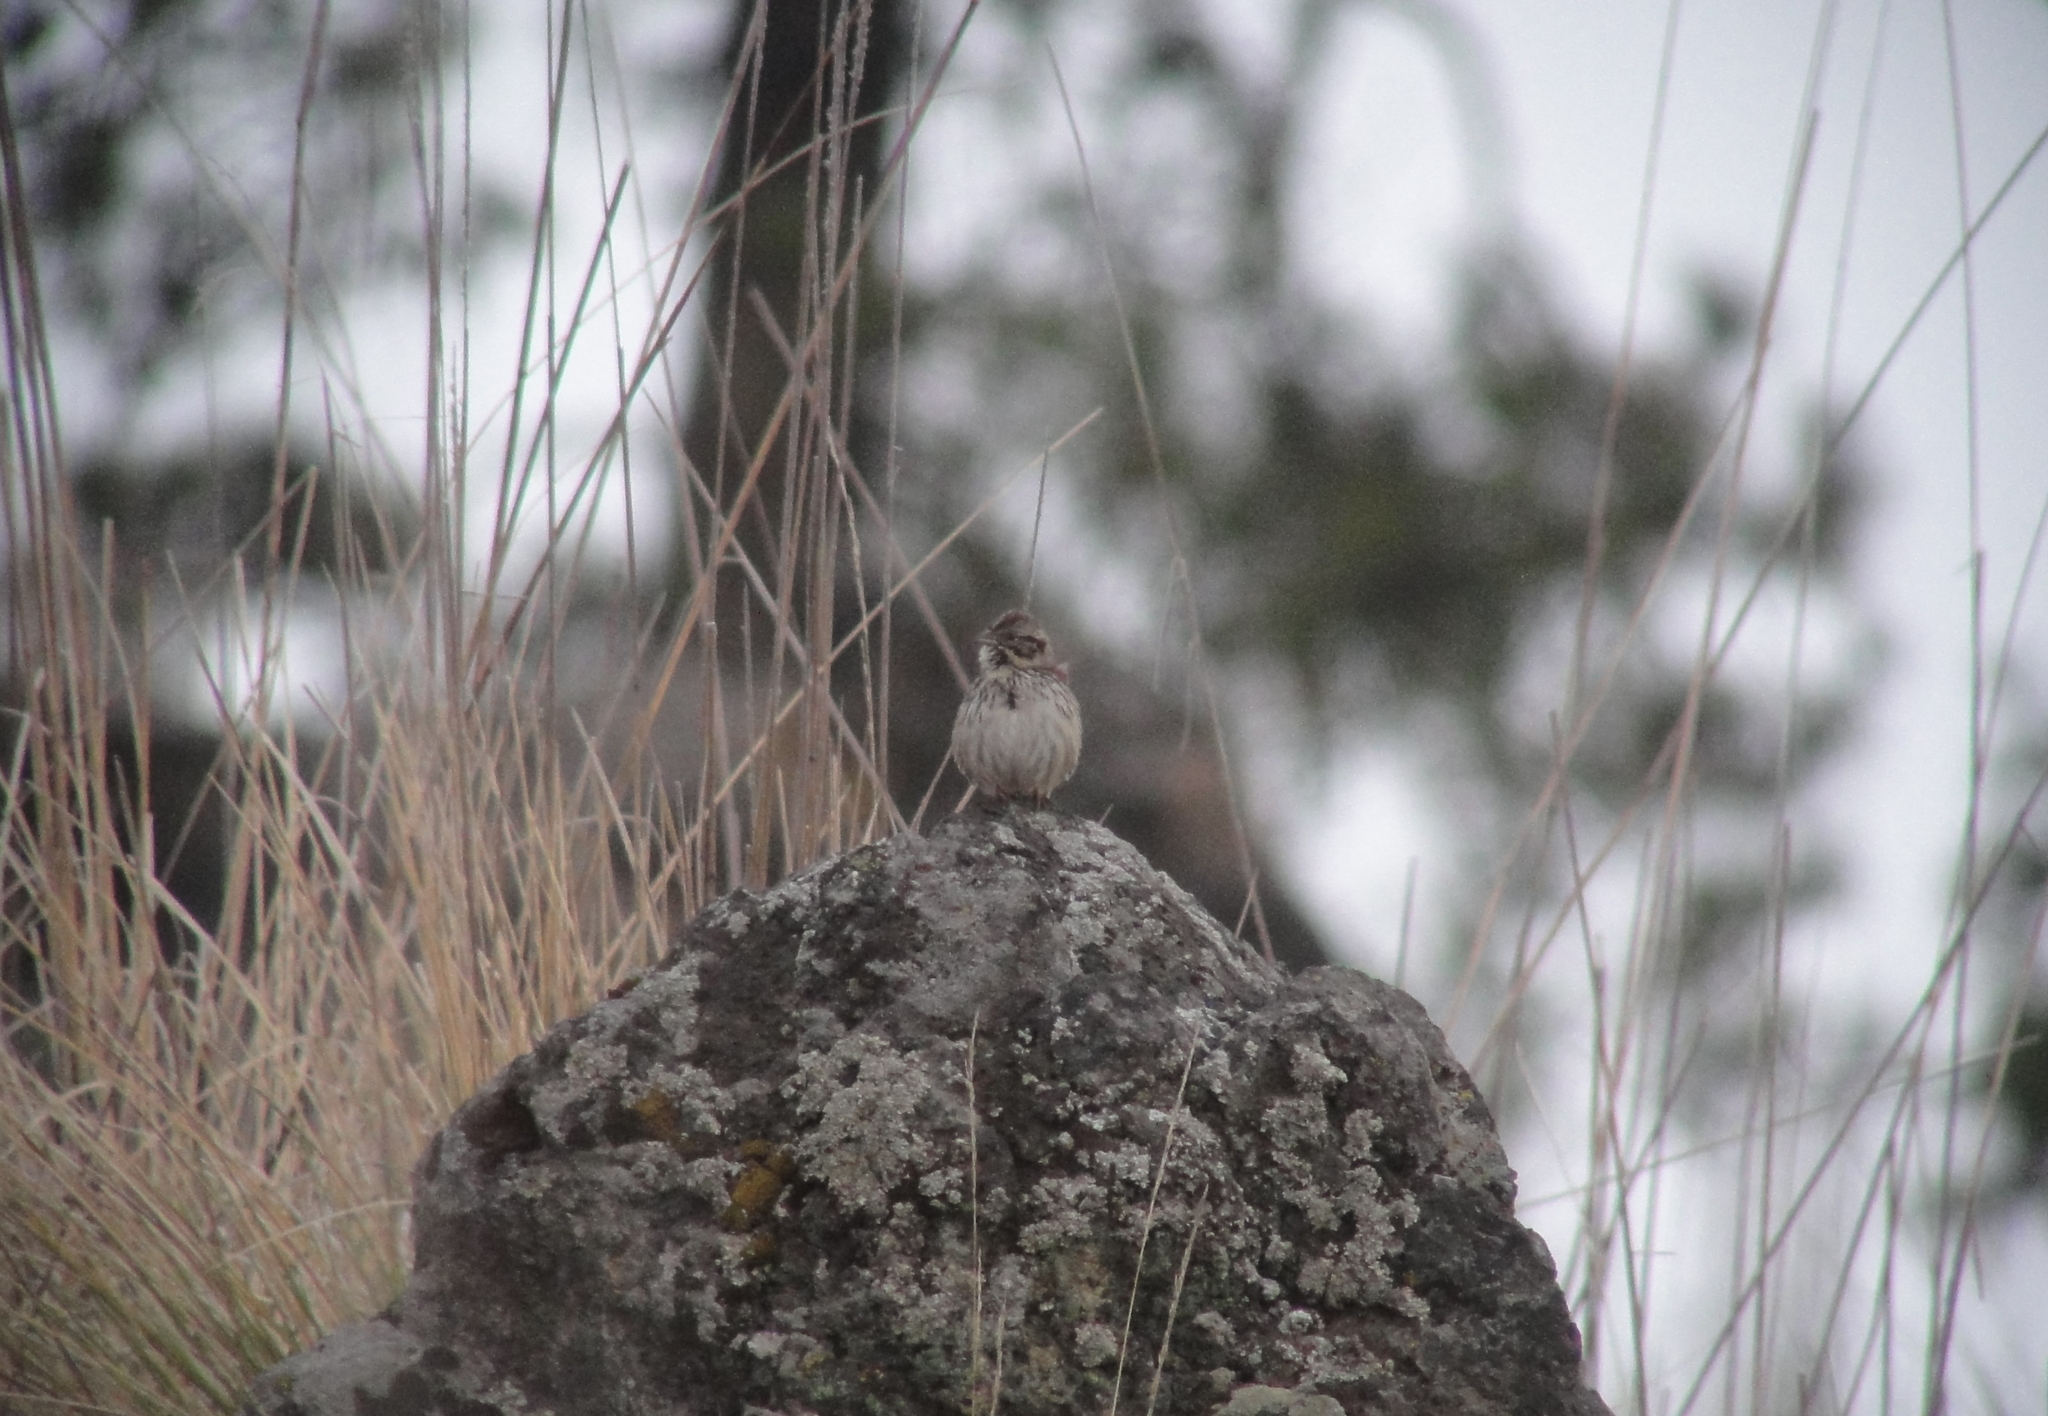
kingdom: Animalia
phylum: Chordata
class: Aves
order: Passeriformes
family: Passerellidae
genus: Xenospiza
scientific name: Xenospiza baileyi
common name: Sierra madre sparrow
